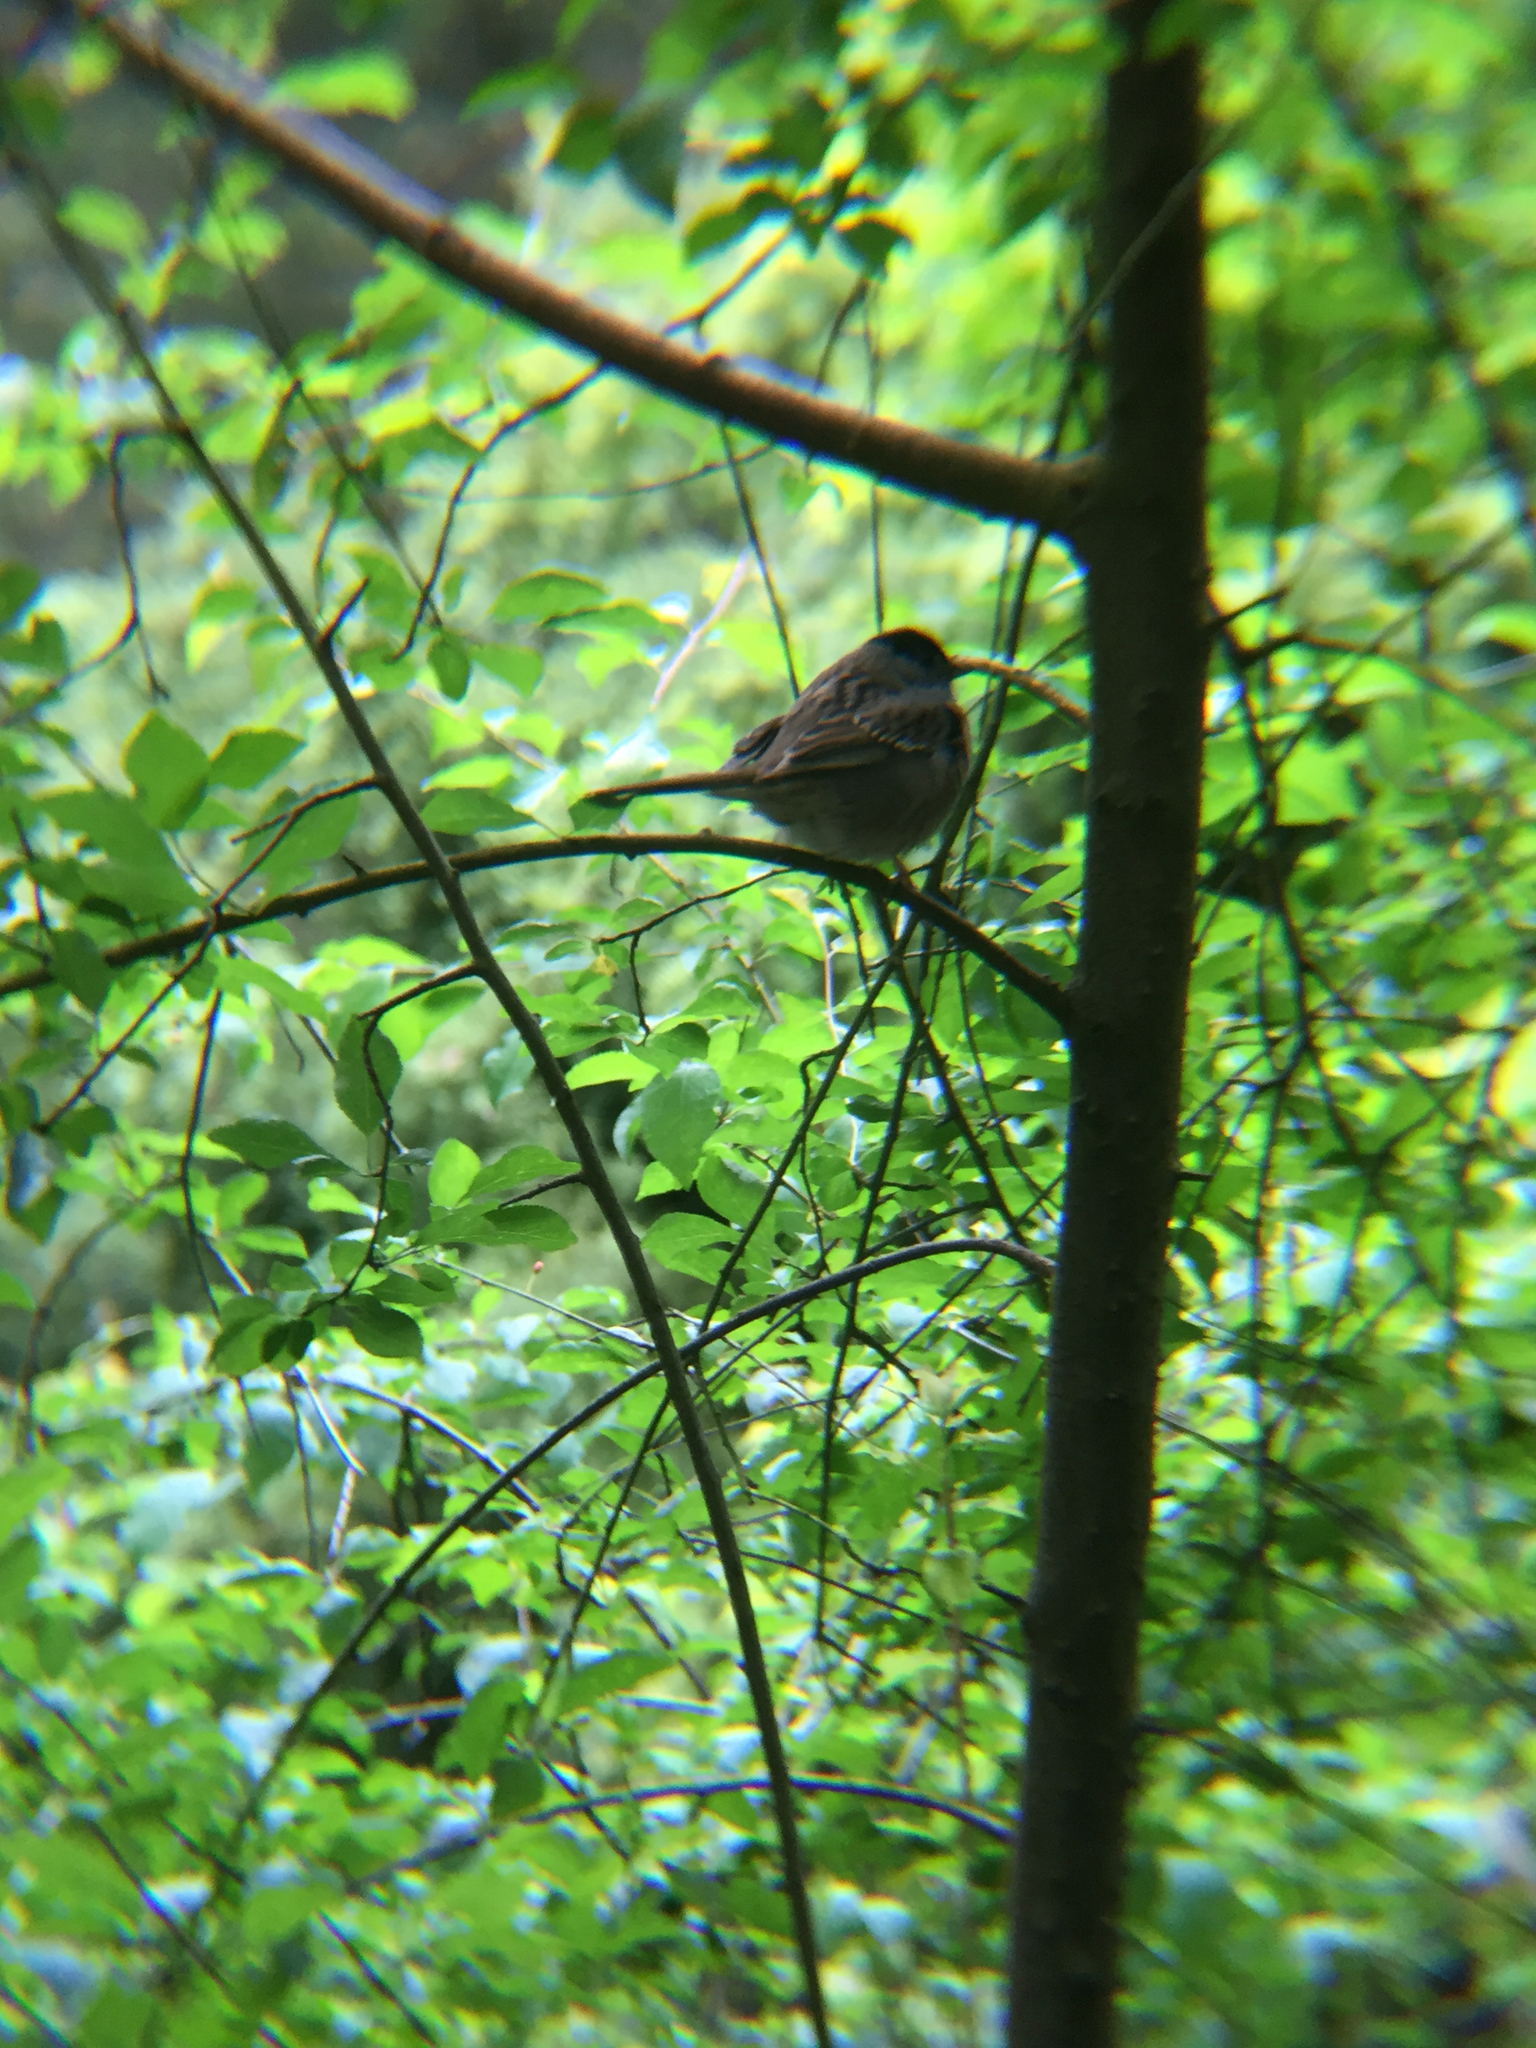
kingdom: Animalia
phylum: Chordata
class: Aves
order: Passeriformes
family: Passerellidae
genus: Zonotrichia
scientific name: Zonotrichia atricapilla
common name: Golden-crowned sparrow
